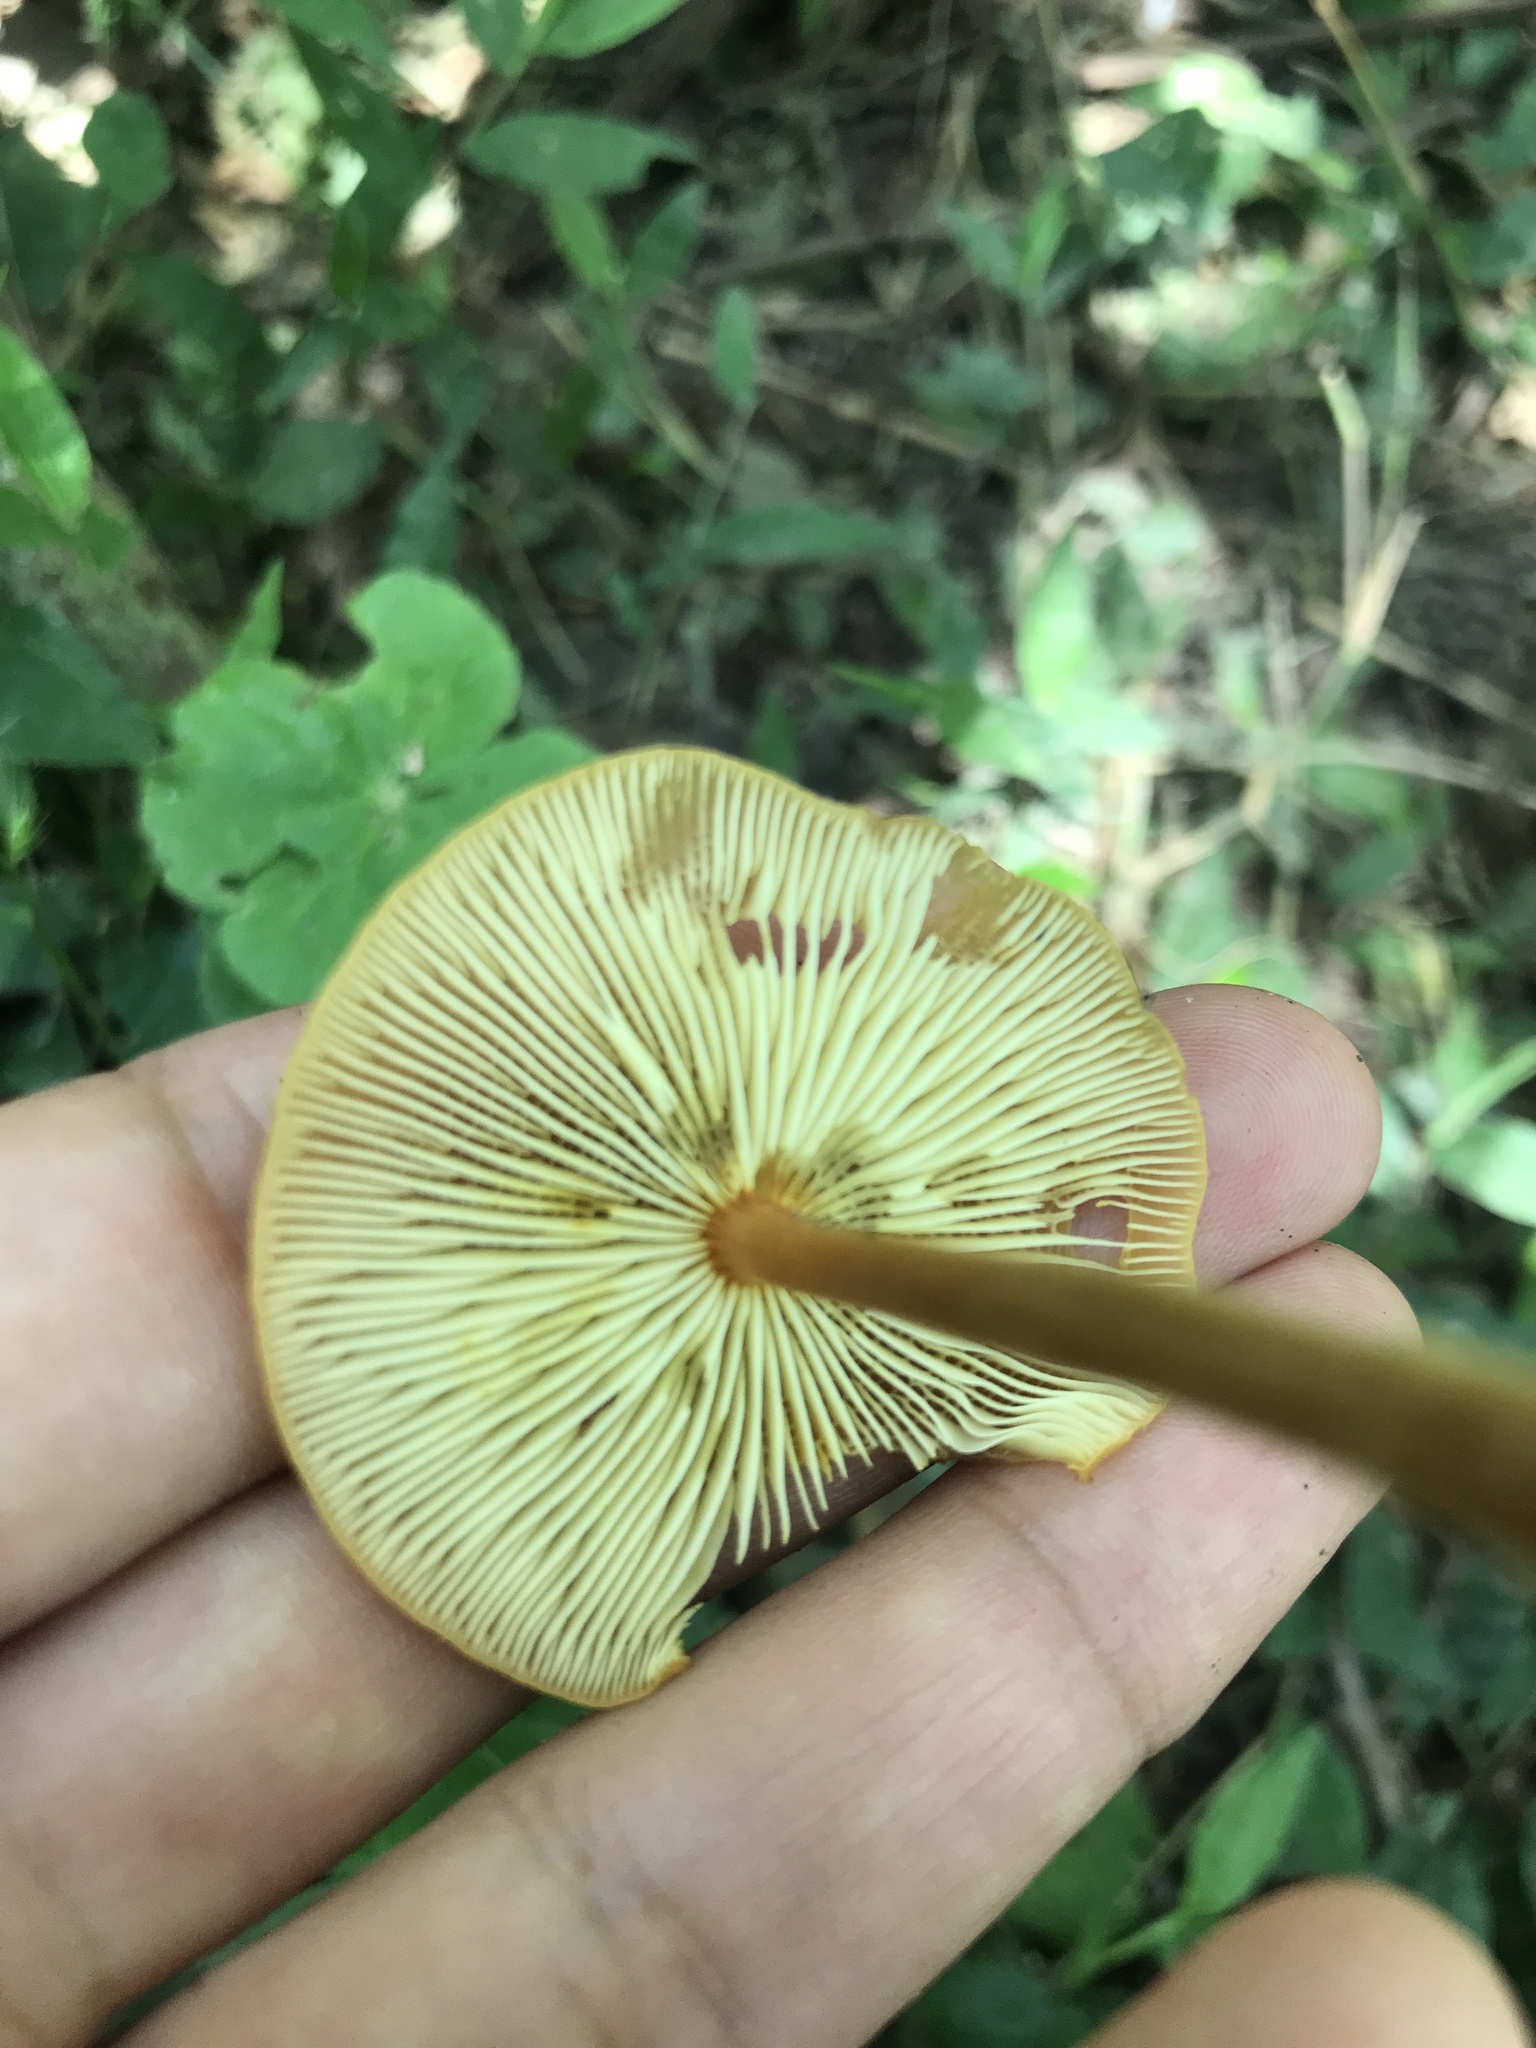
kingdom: Fungi
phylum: Basidiomycota
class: Agaricomycetes
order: Agaricales
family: Mycenaceae
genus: Xeromphalina
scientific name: Xeromphalina tenuipes
